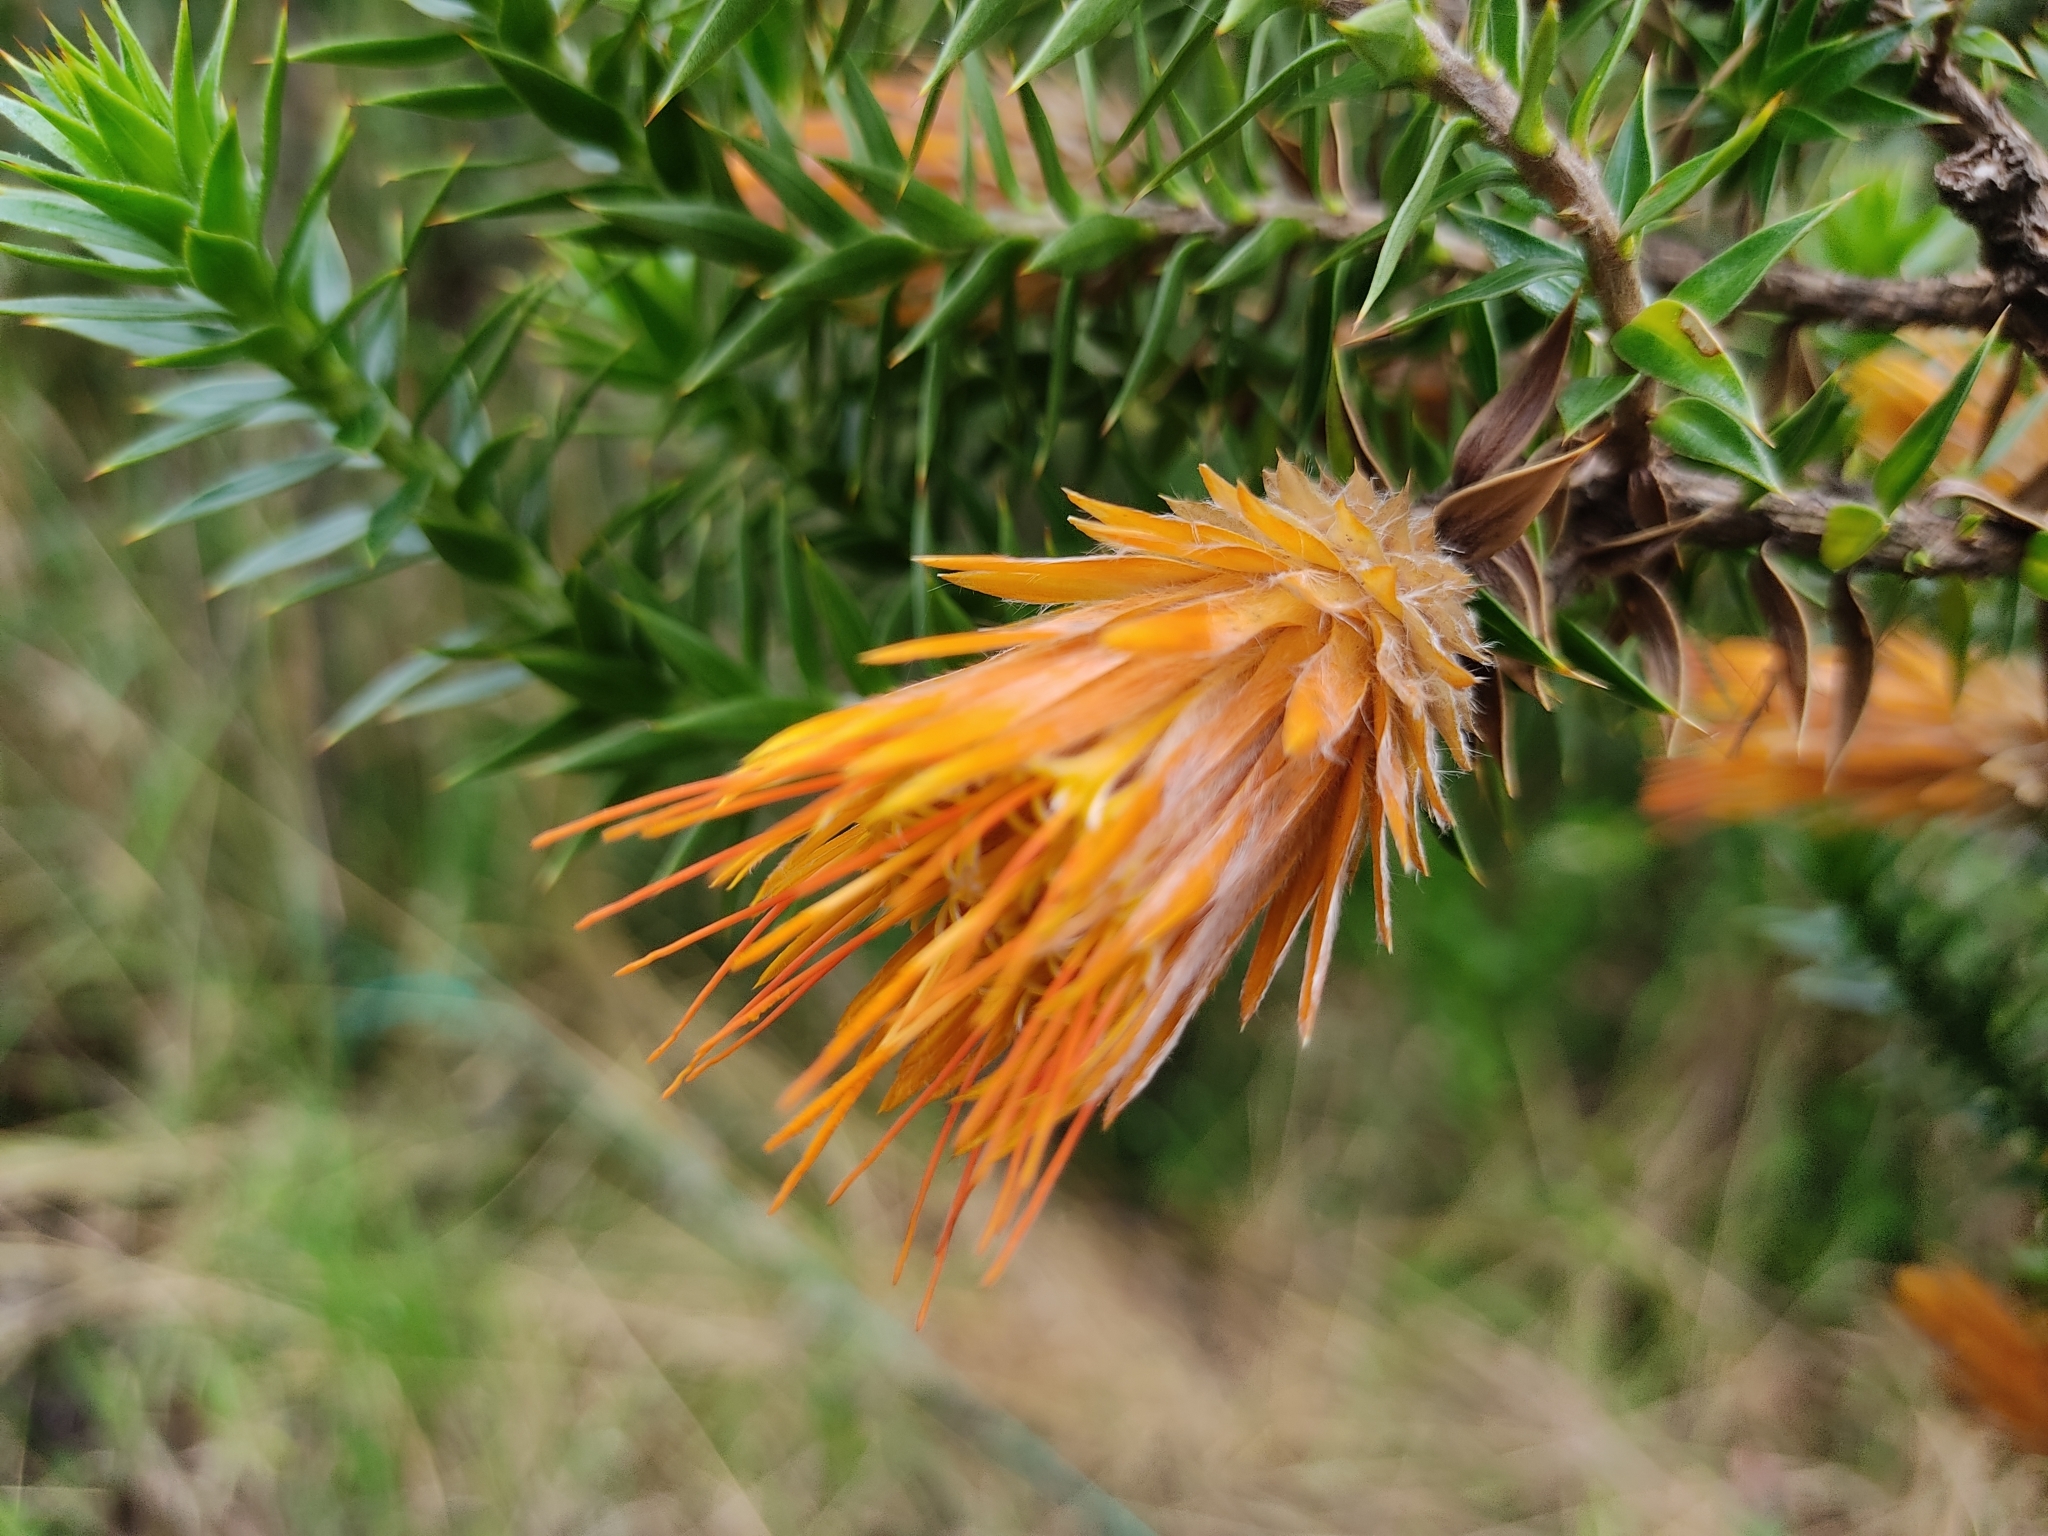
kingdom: Plantae
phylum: Tracheophyta
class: Magnoliopsida
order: Asterales
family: Asteraceae
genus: Chuquiraga
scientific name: Chuquiraga jussieui
